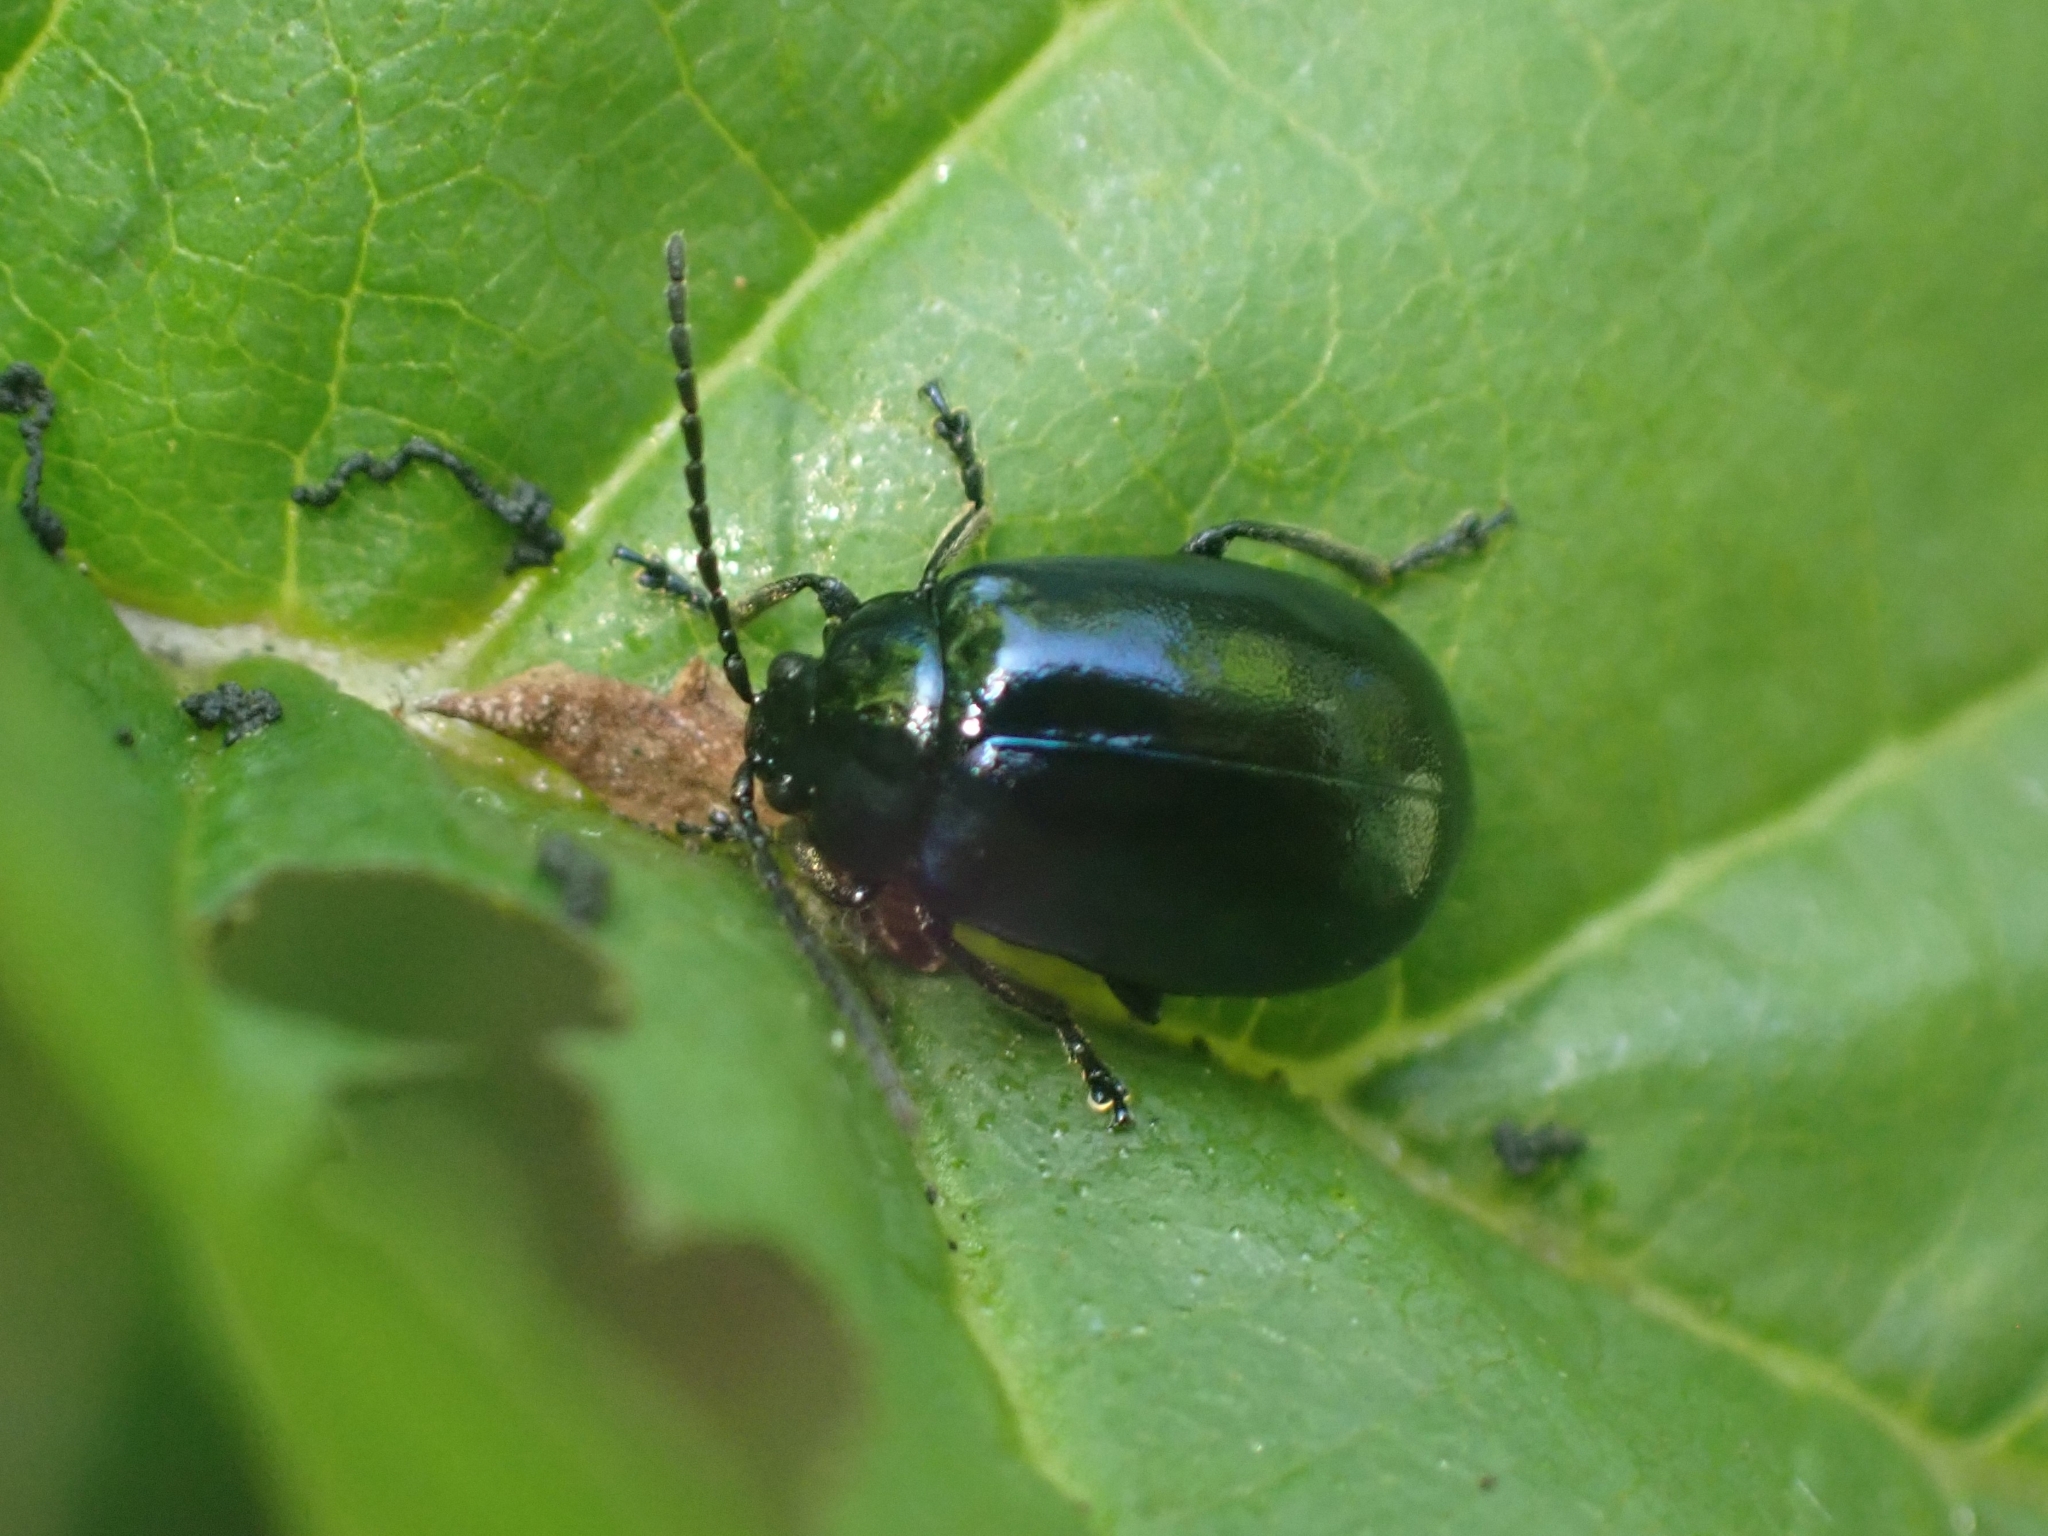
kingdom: Animalia
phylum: Arthropoda
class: Insecta
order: Coleoptera
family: Chrysomelidae
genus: Agelastica
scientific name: Agelastica alni
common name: Alder leaf beetle
